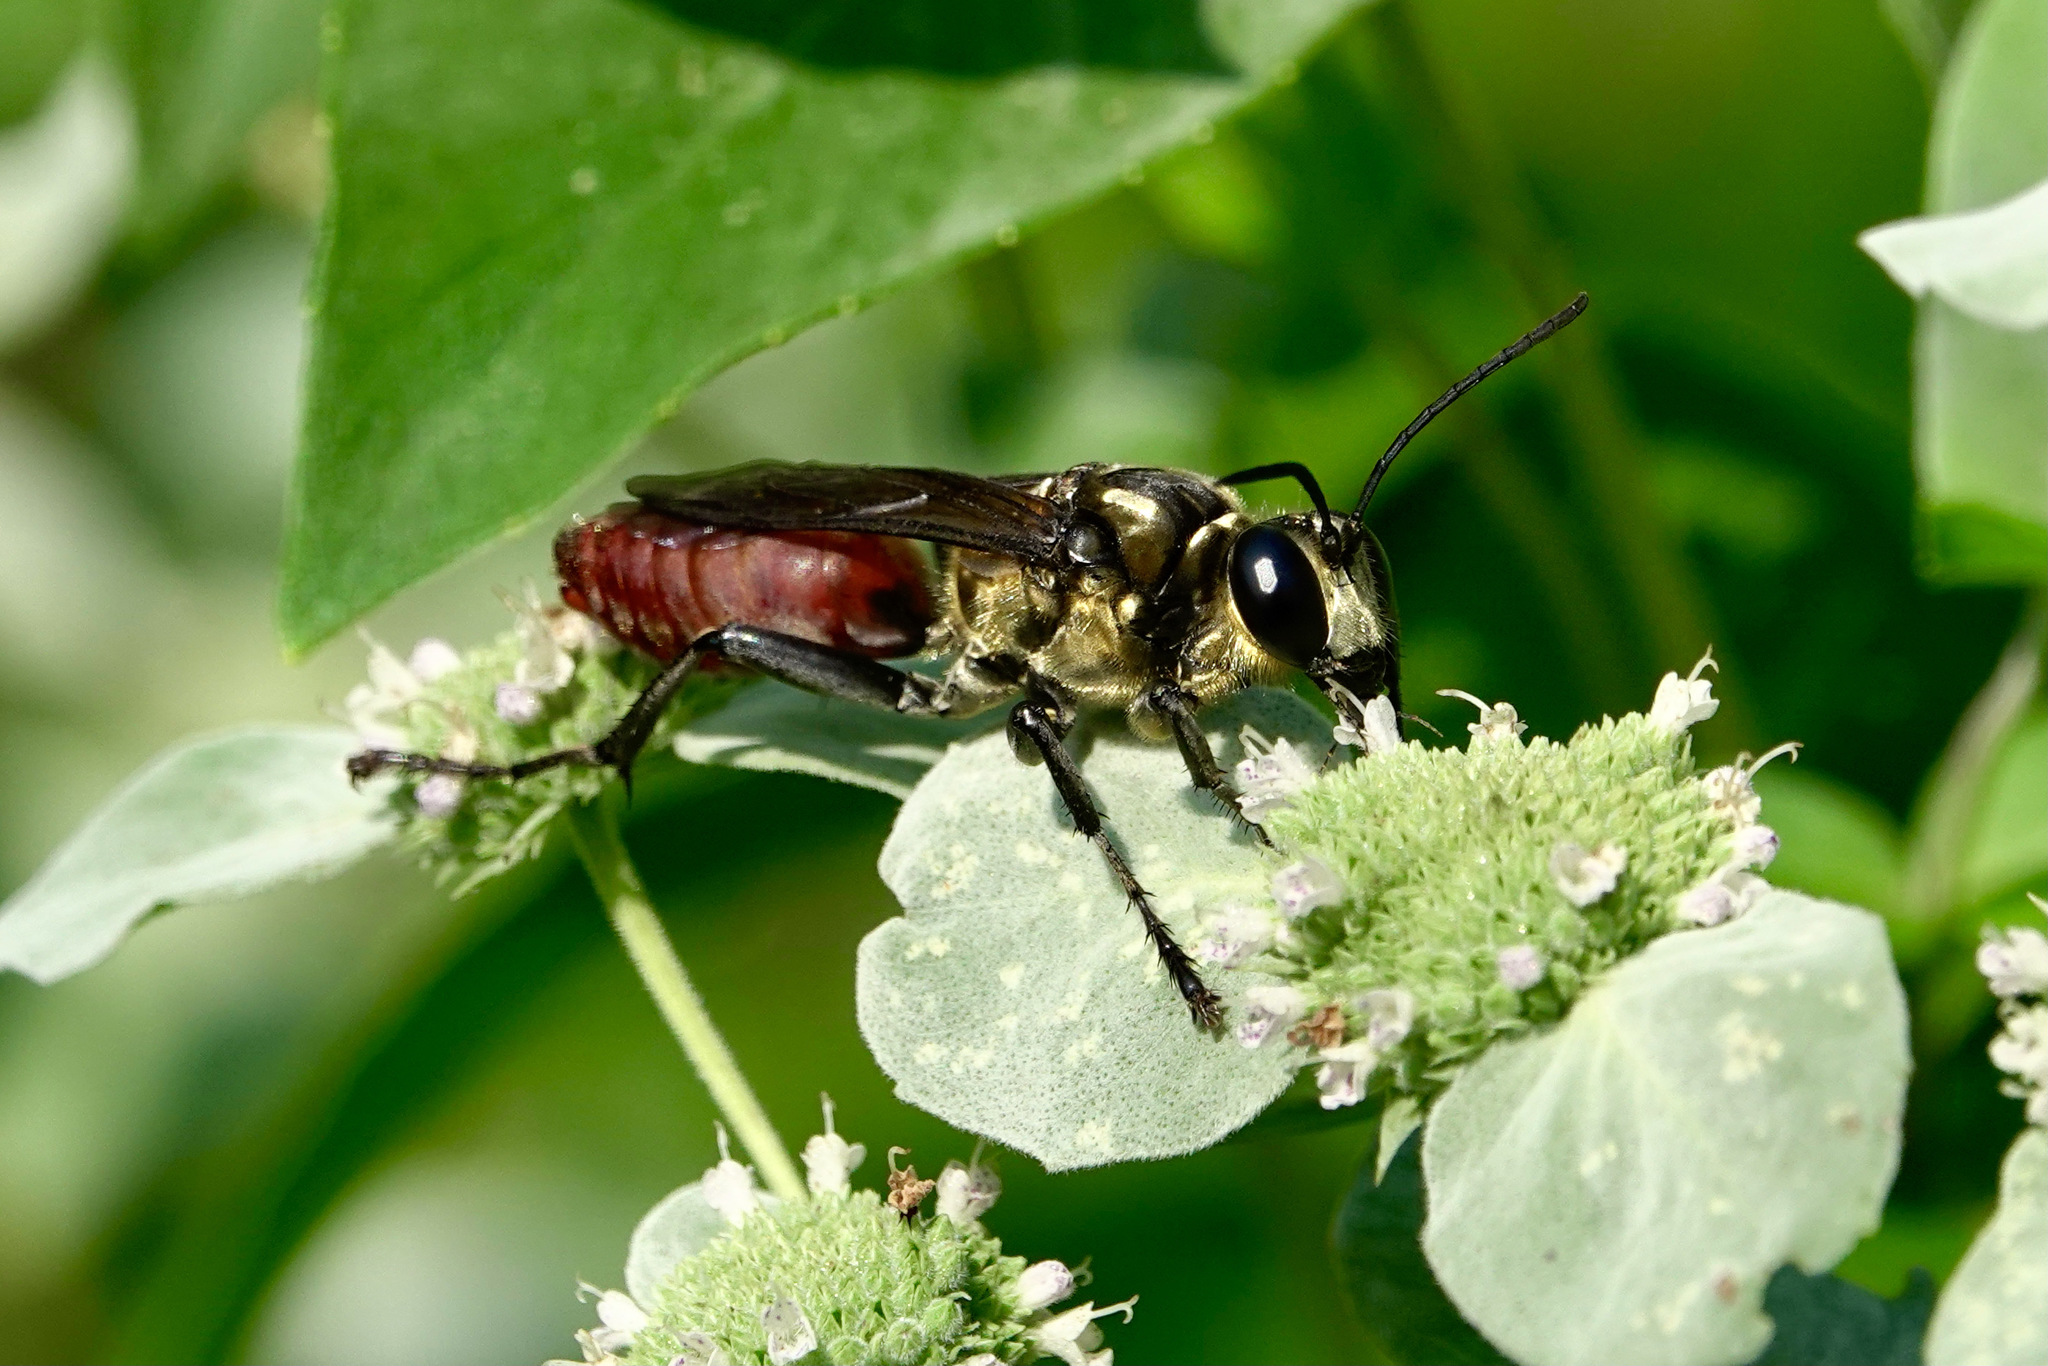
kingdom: Animalia
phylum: Arthropoda
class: Insecta
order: Hymenoptera
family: Sphecidae
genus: Sphex
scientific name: Sphex habenus
